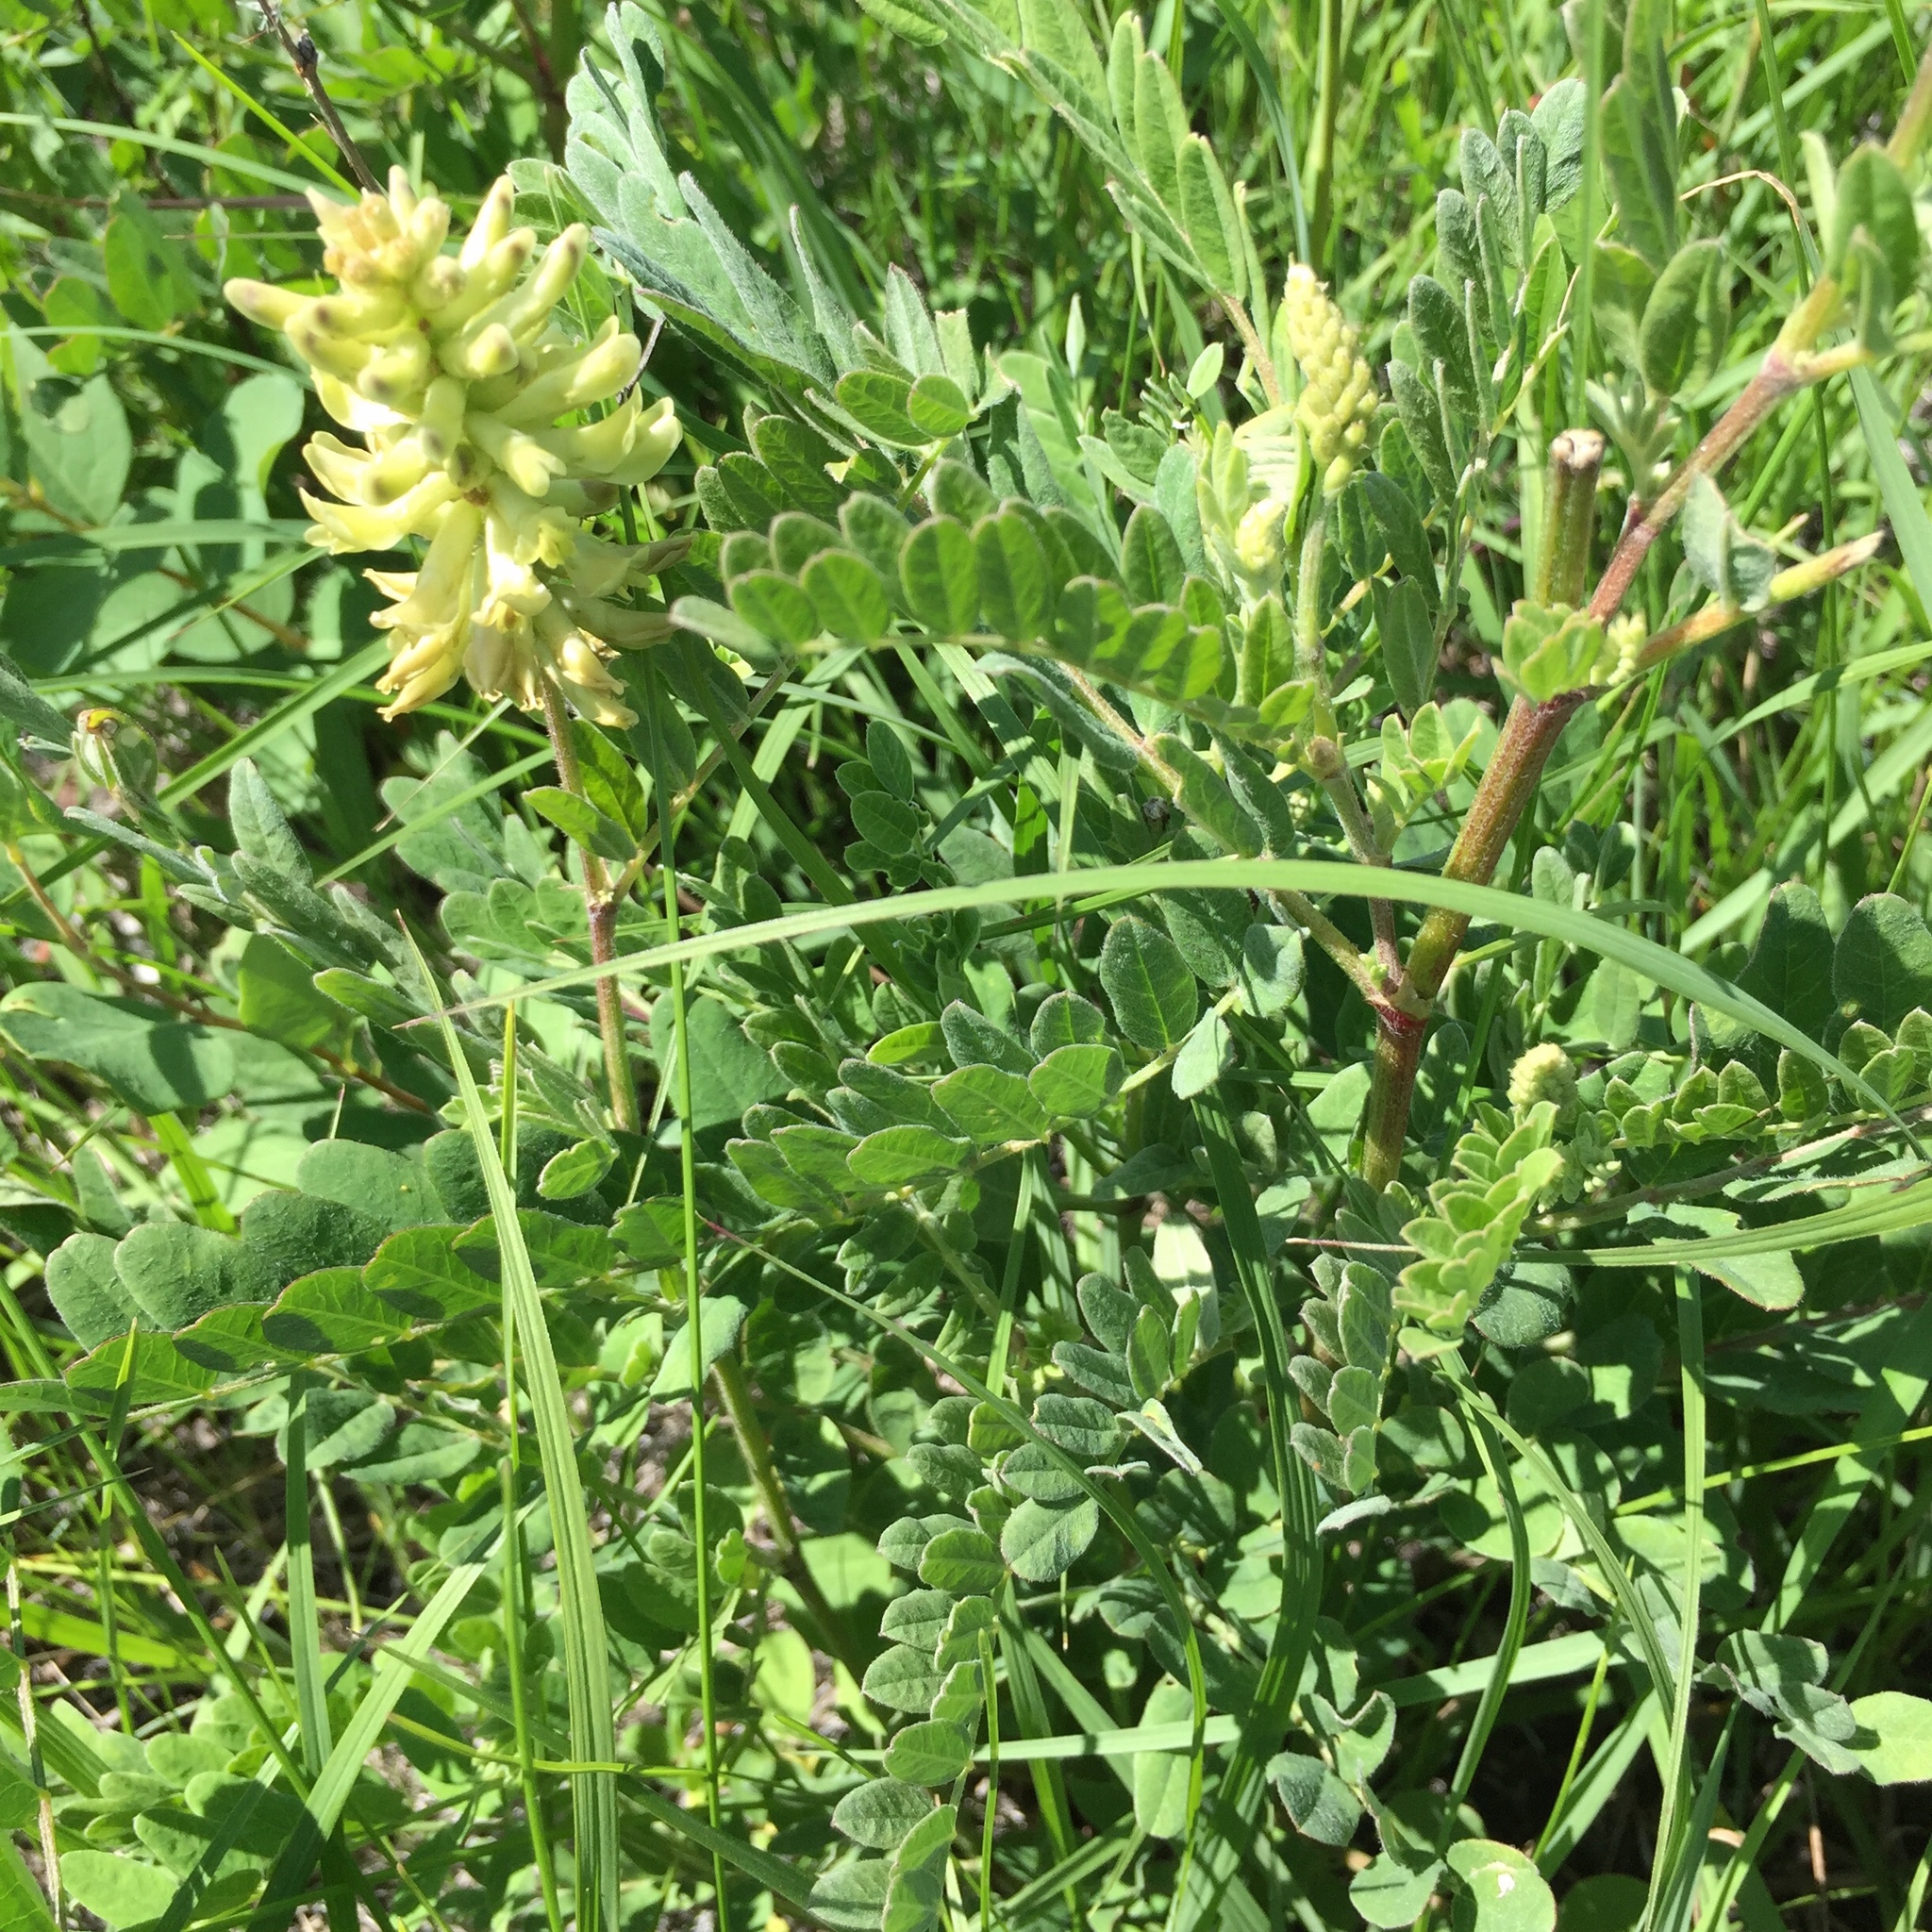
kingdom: Plantae
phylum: Tracheophyta
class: Magnoliopsida
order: Fabales
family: Fabaceae
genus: Astragalus
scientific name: Astragalus canadensis
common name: Canada milk-vetch
